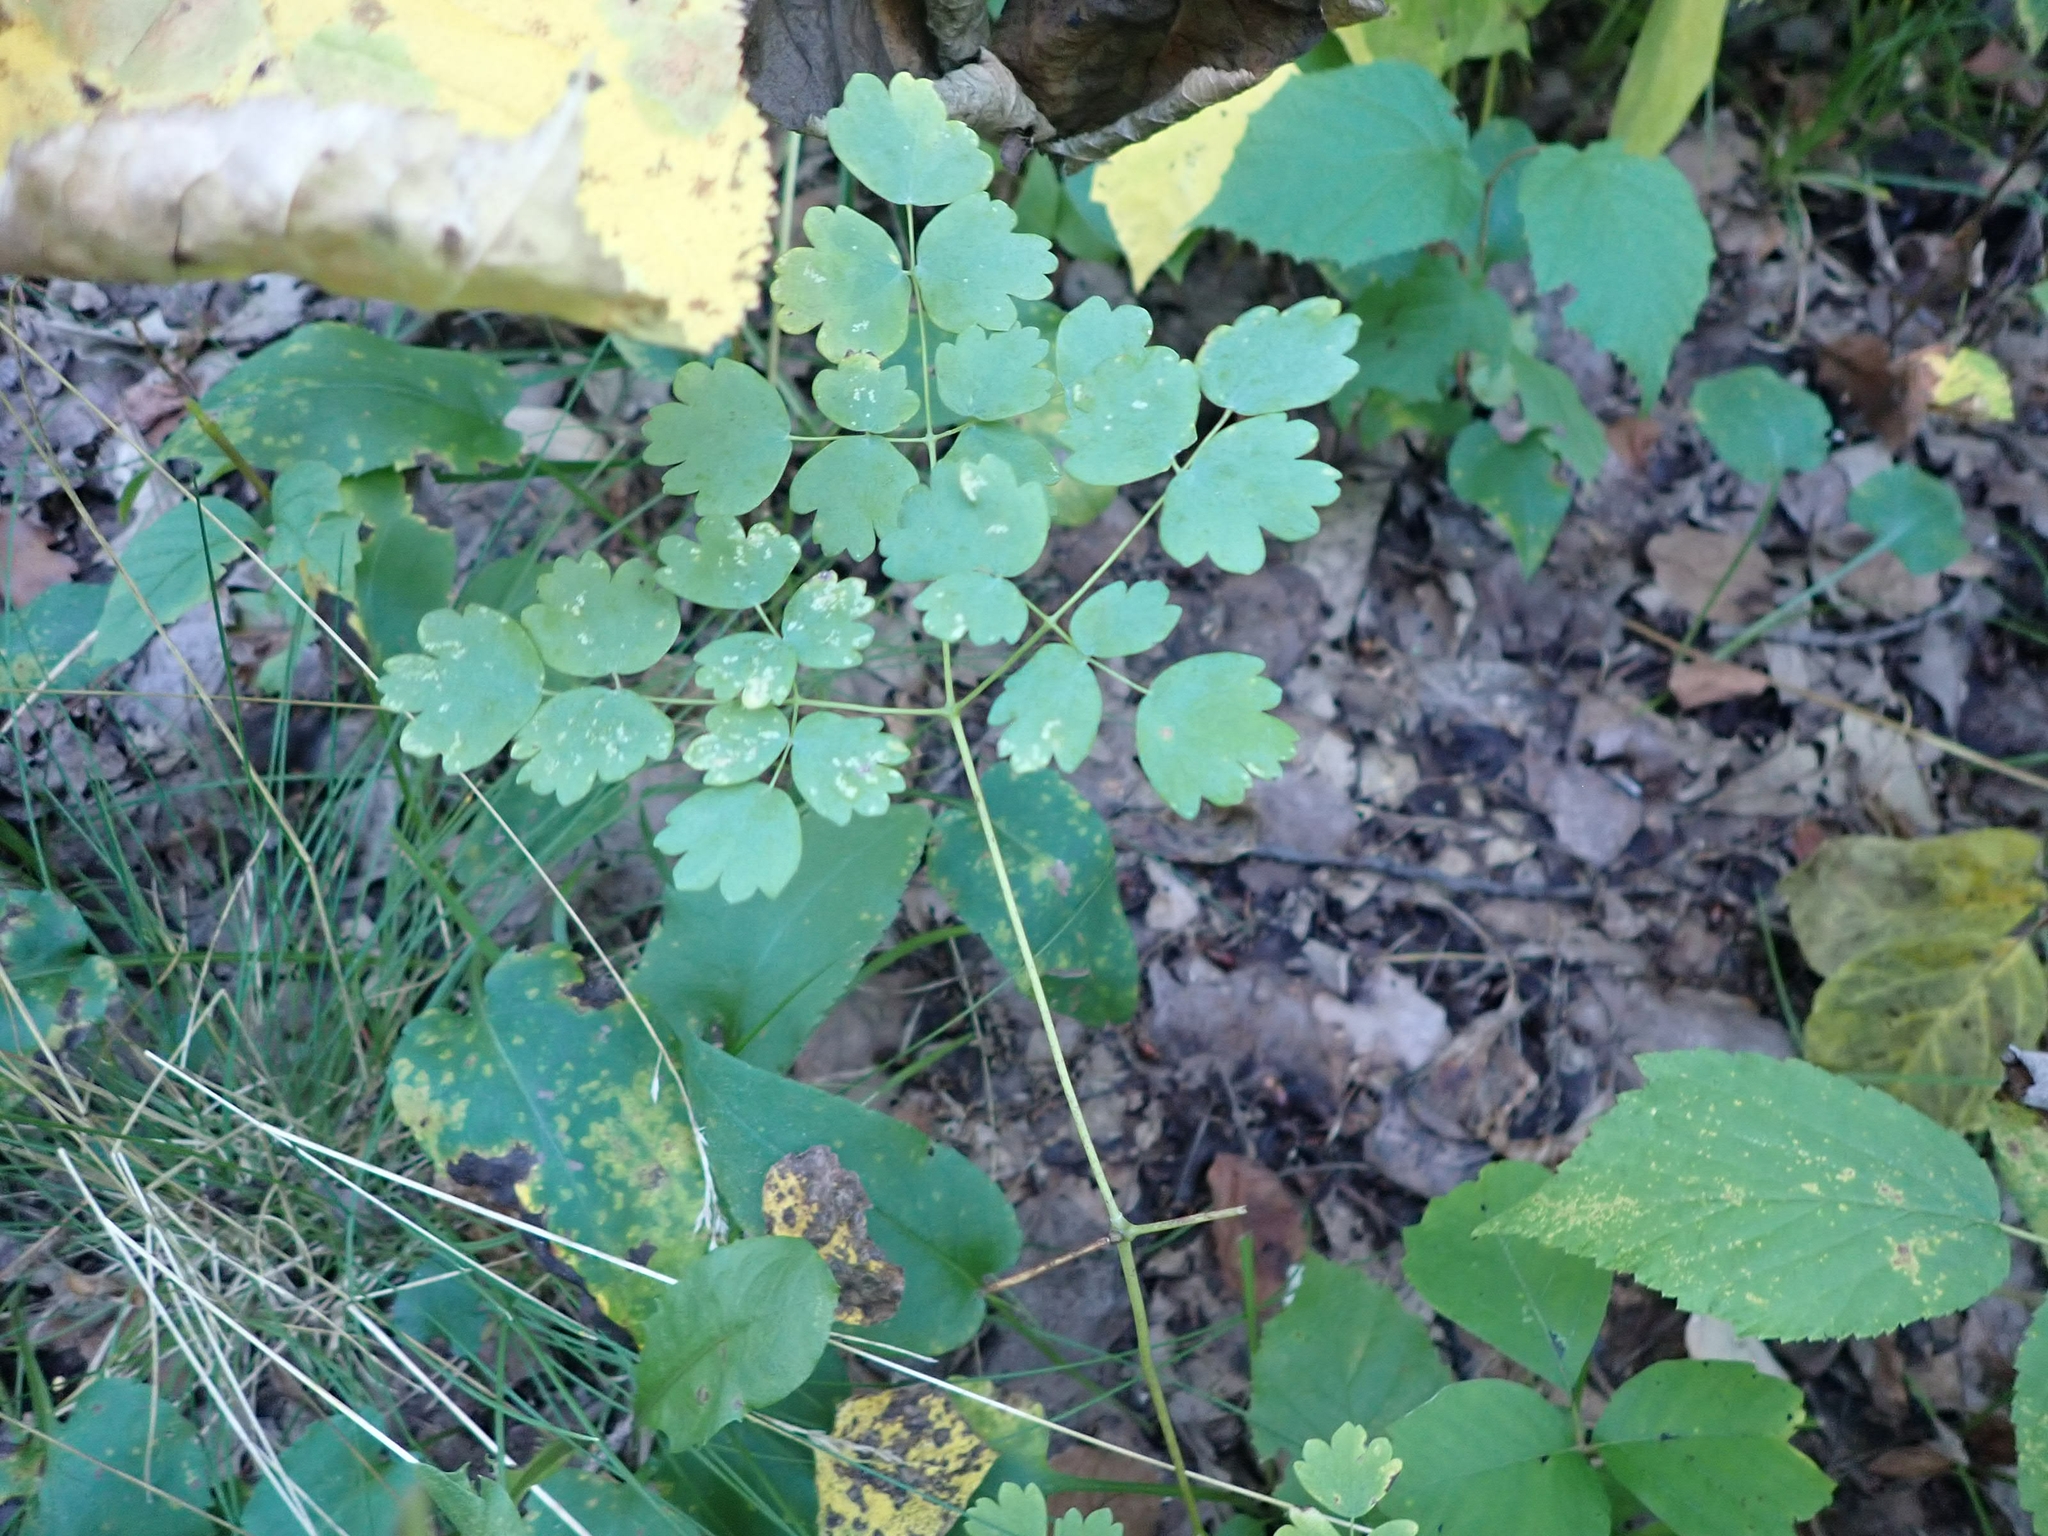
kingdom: Plantae
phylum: Tracheophyta
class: Magnoliopsida
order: Ranunculales
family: Ranunculaceae
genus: Thalictrum
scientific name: Thalictrum venulosum
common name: Early meadow-rue
